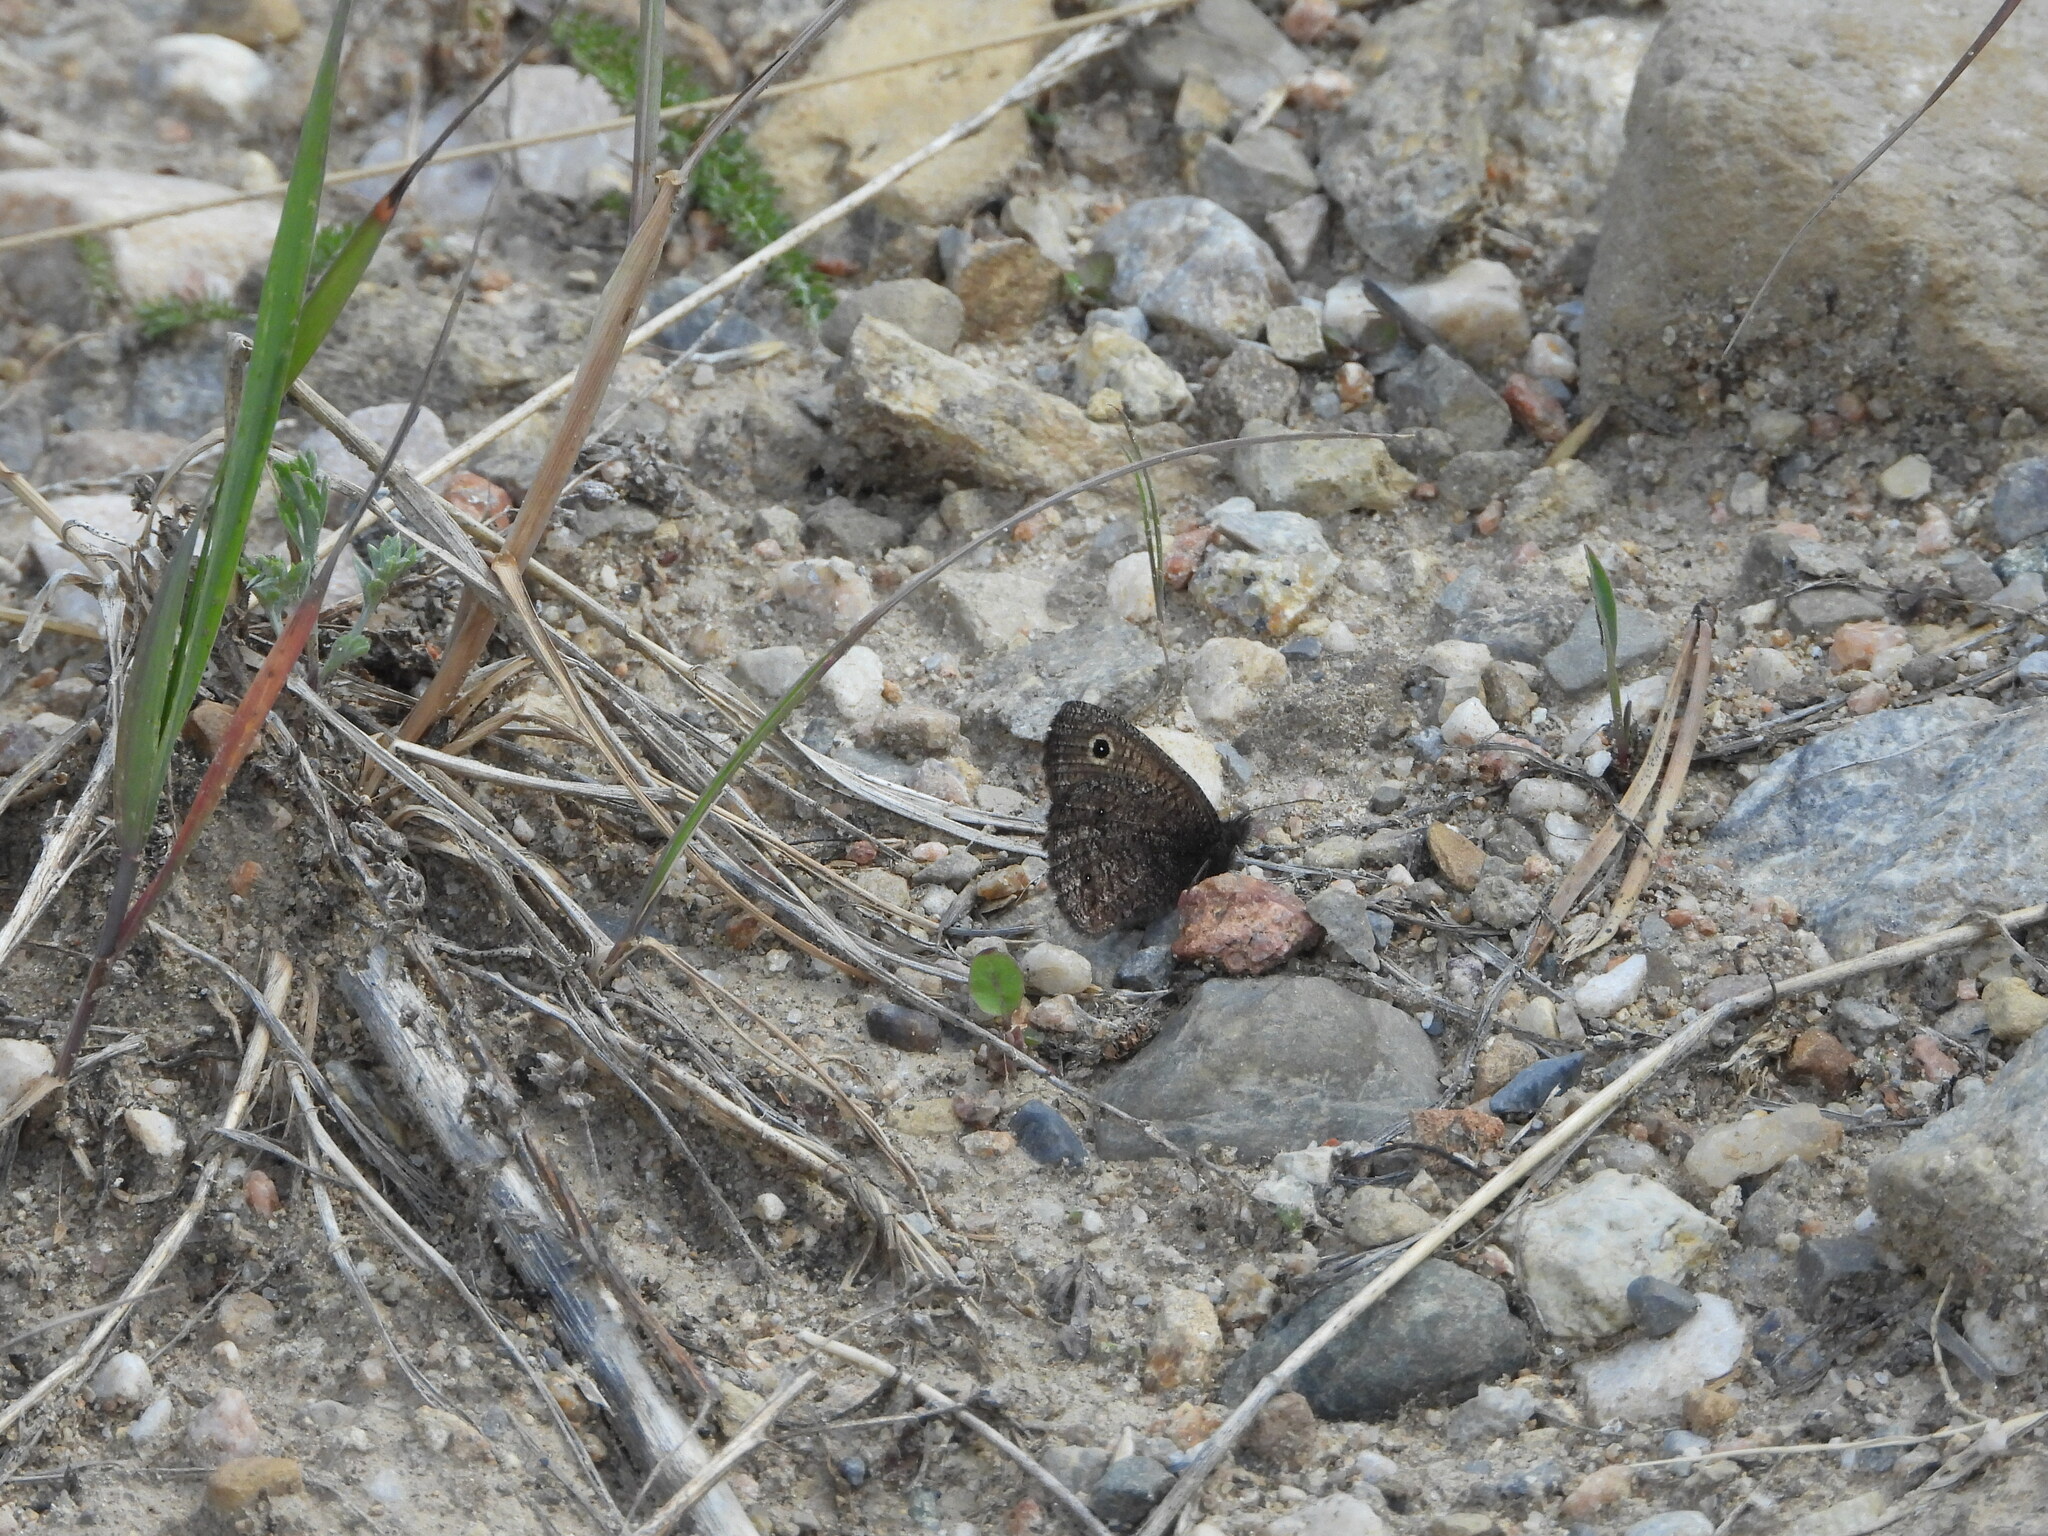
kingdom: Animalia
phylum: Arthropoda
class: Insecta
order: Lepidoptera
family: Nymphalidae
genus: Cercyonis
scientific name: Cercyonis oetus
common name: Small wood-nymph
